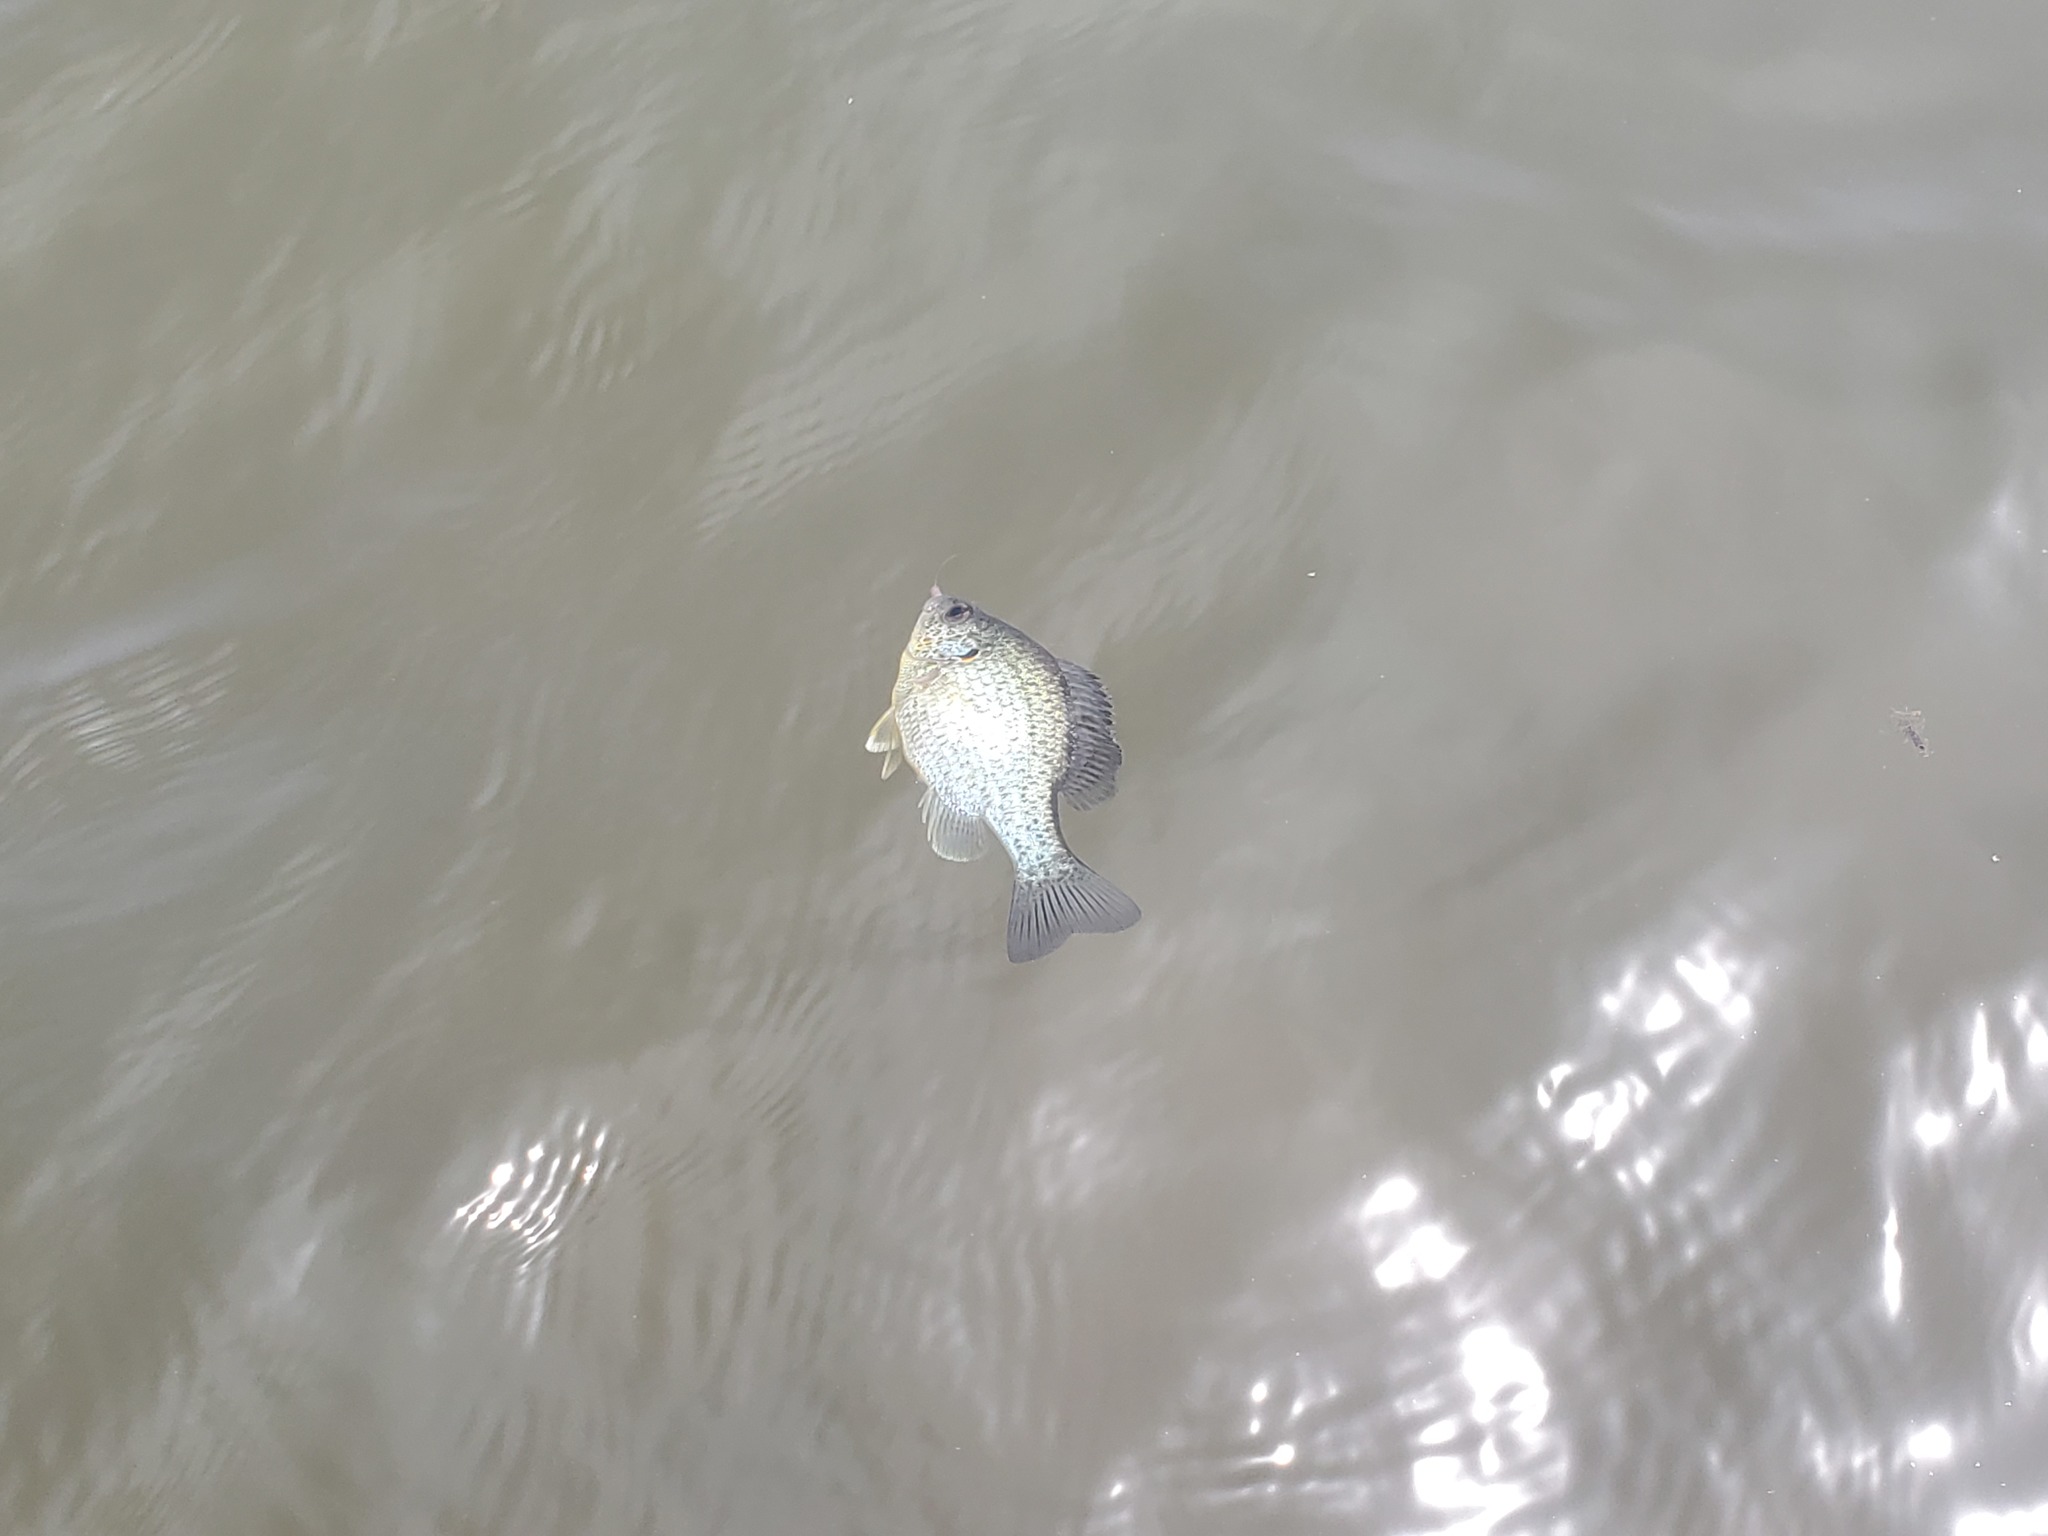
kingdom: Animalia
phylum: Chordata
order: Perciformes
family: Centrarchidae
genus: Lepomis
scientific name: Lepomis microlophus
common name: Redear sunfish
